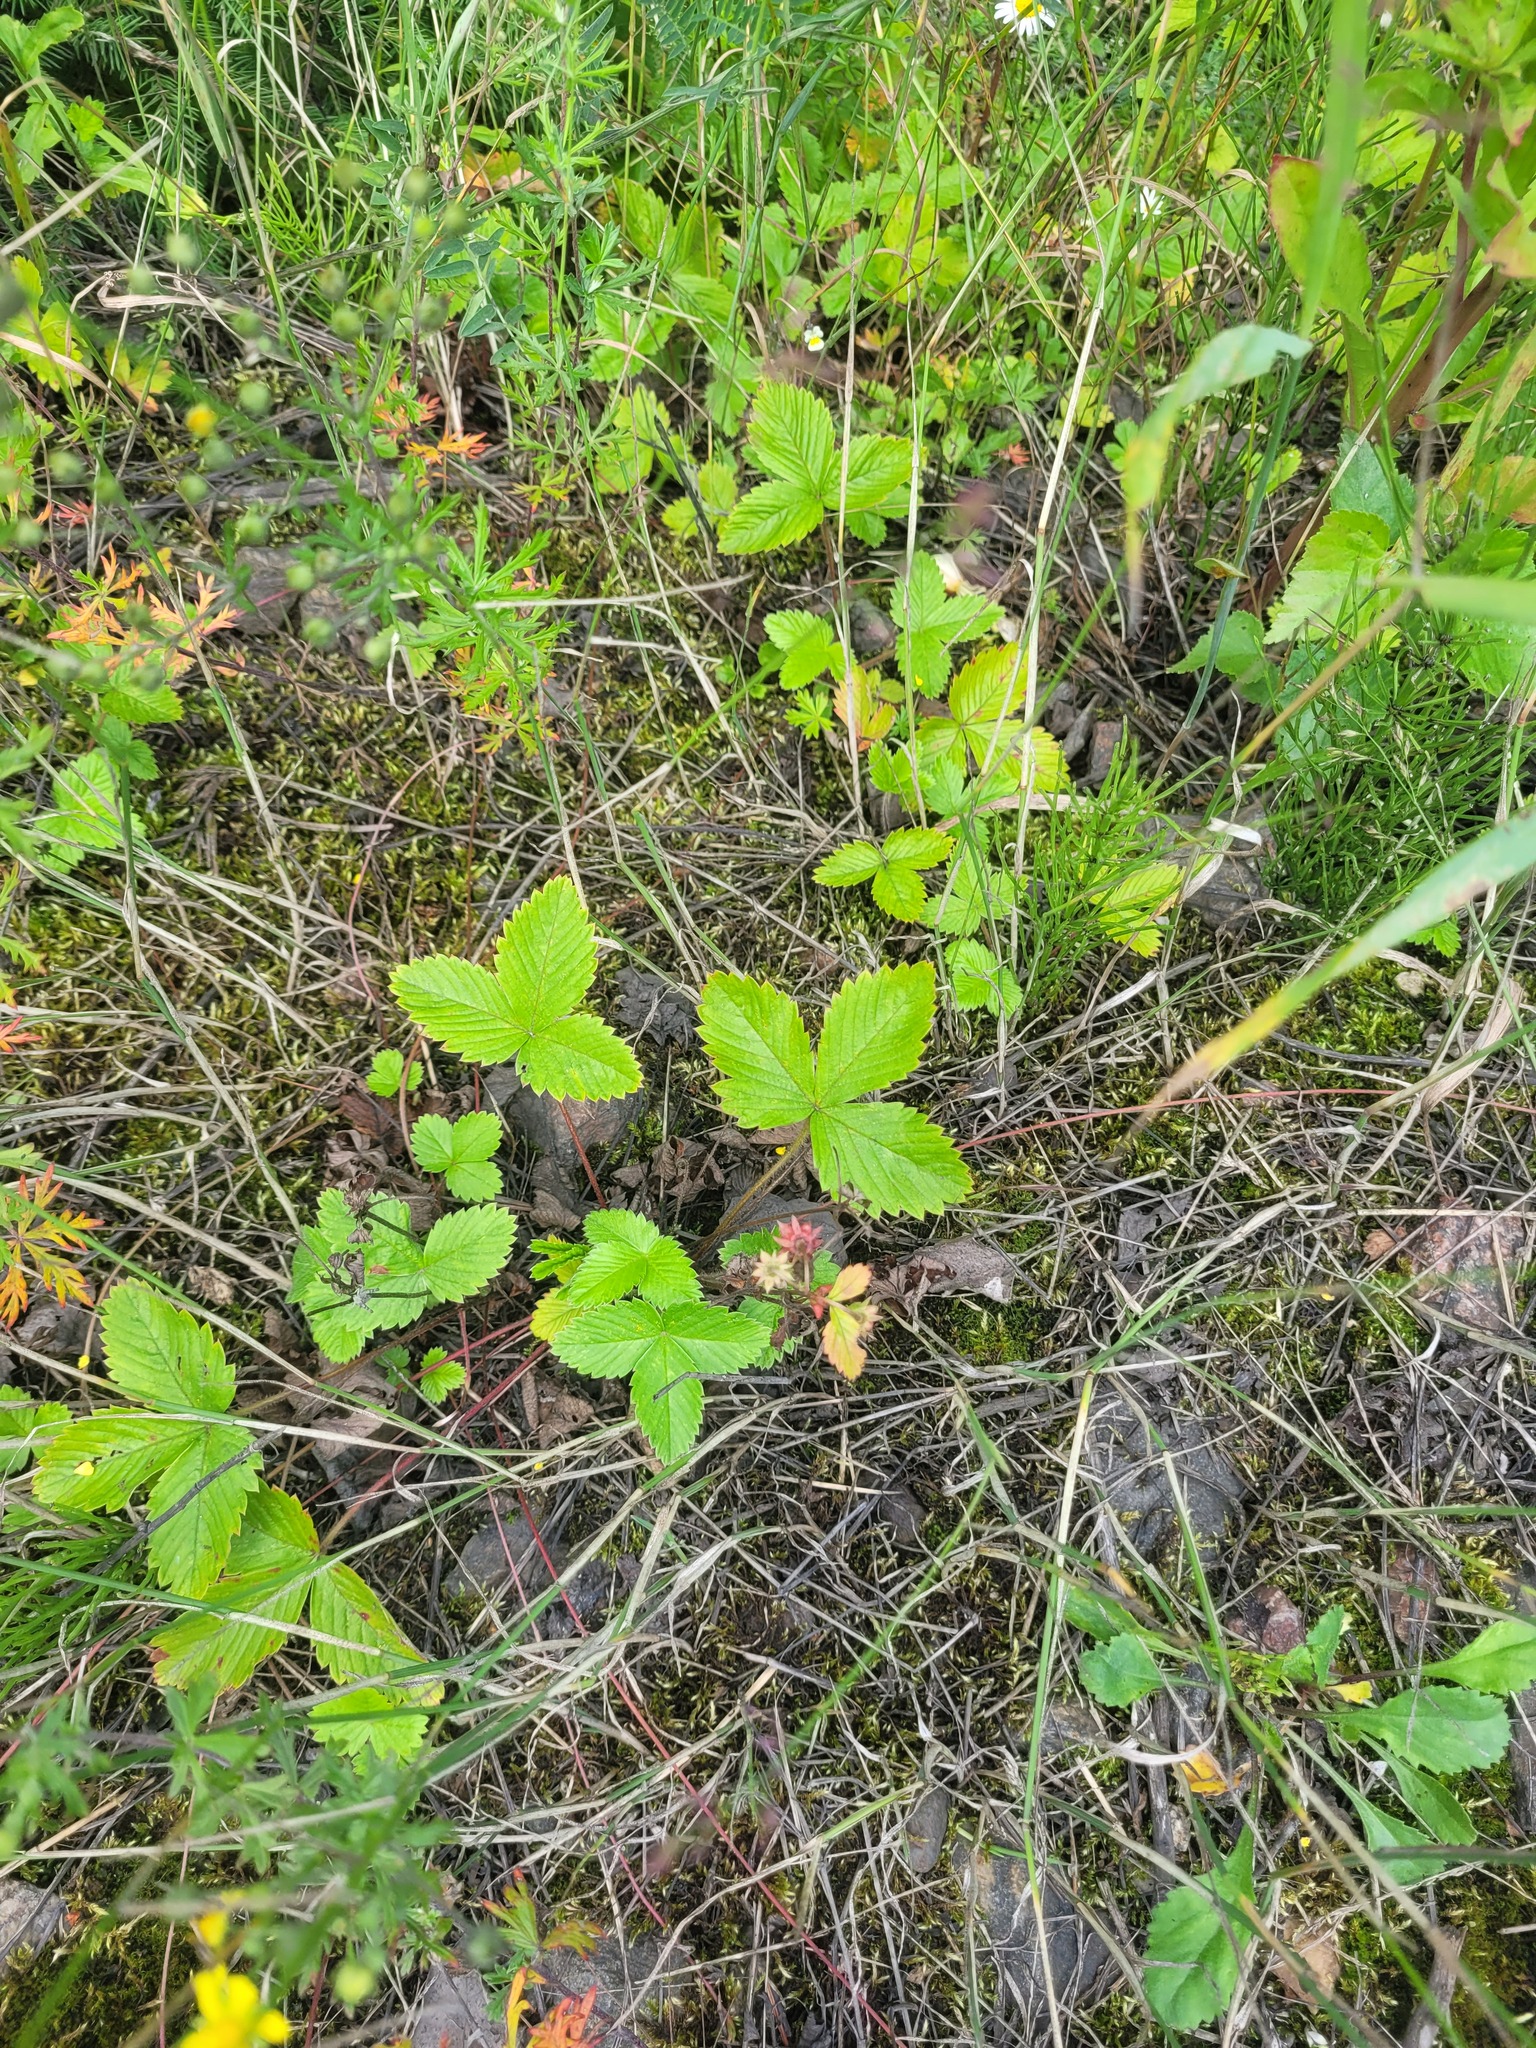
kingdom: Plantae
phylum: Tracheophyta
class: Magnoliopsida
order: Rosales
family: Rosaceae
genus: Fragaria
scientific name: Fragaria vesca
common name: Wild strawberry
